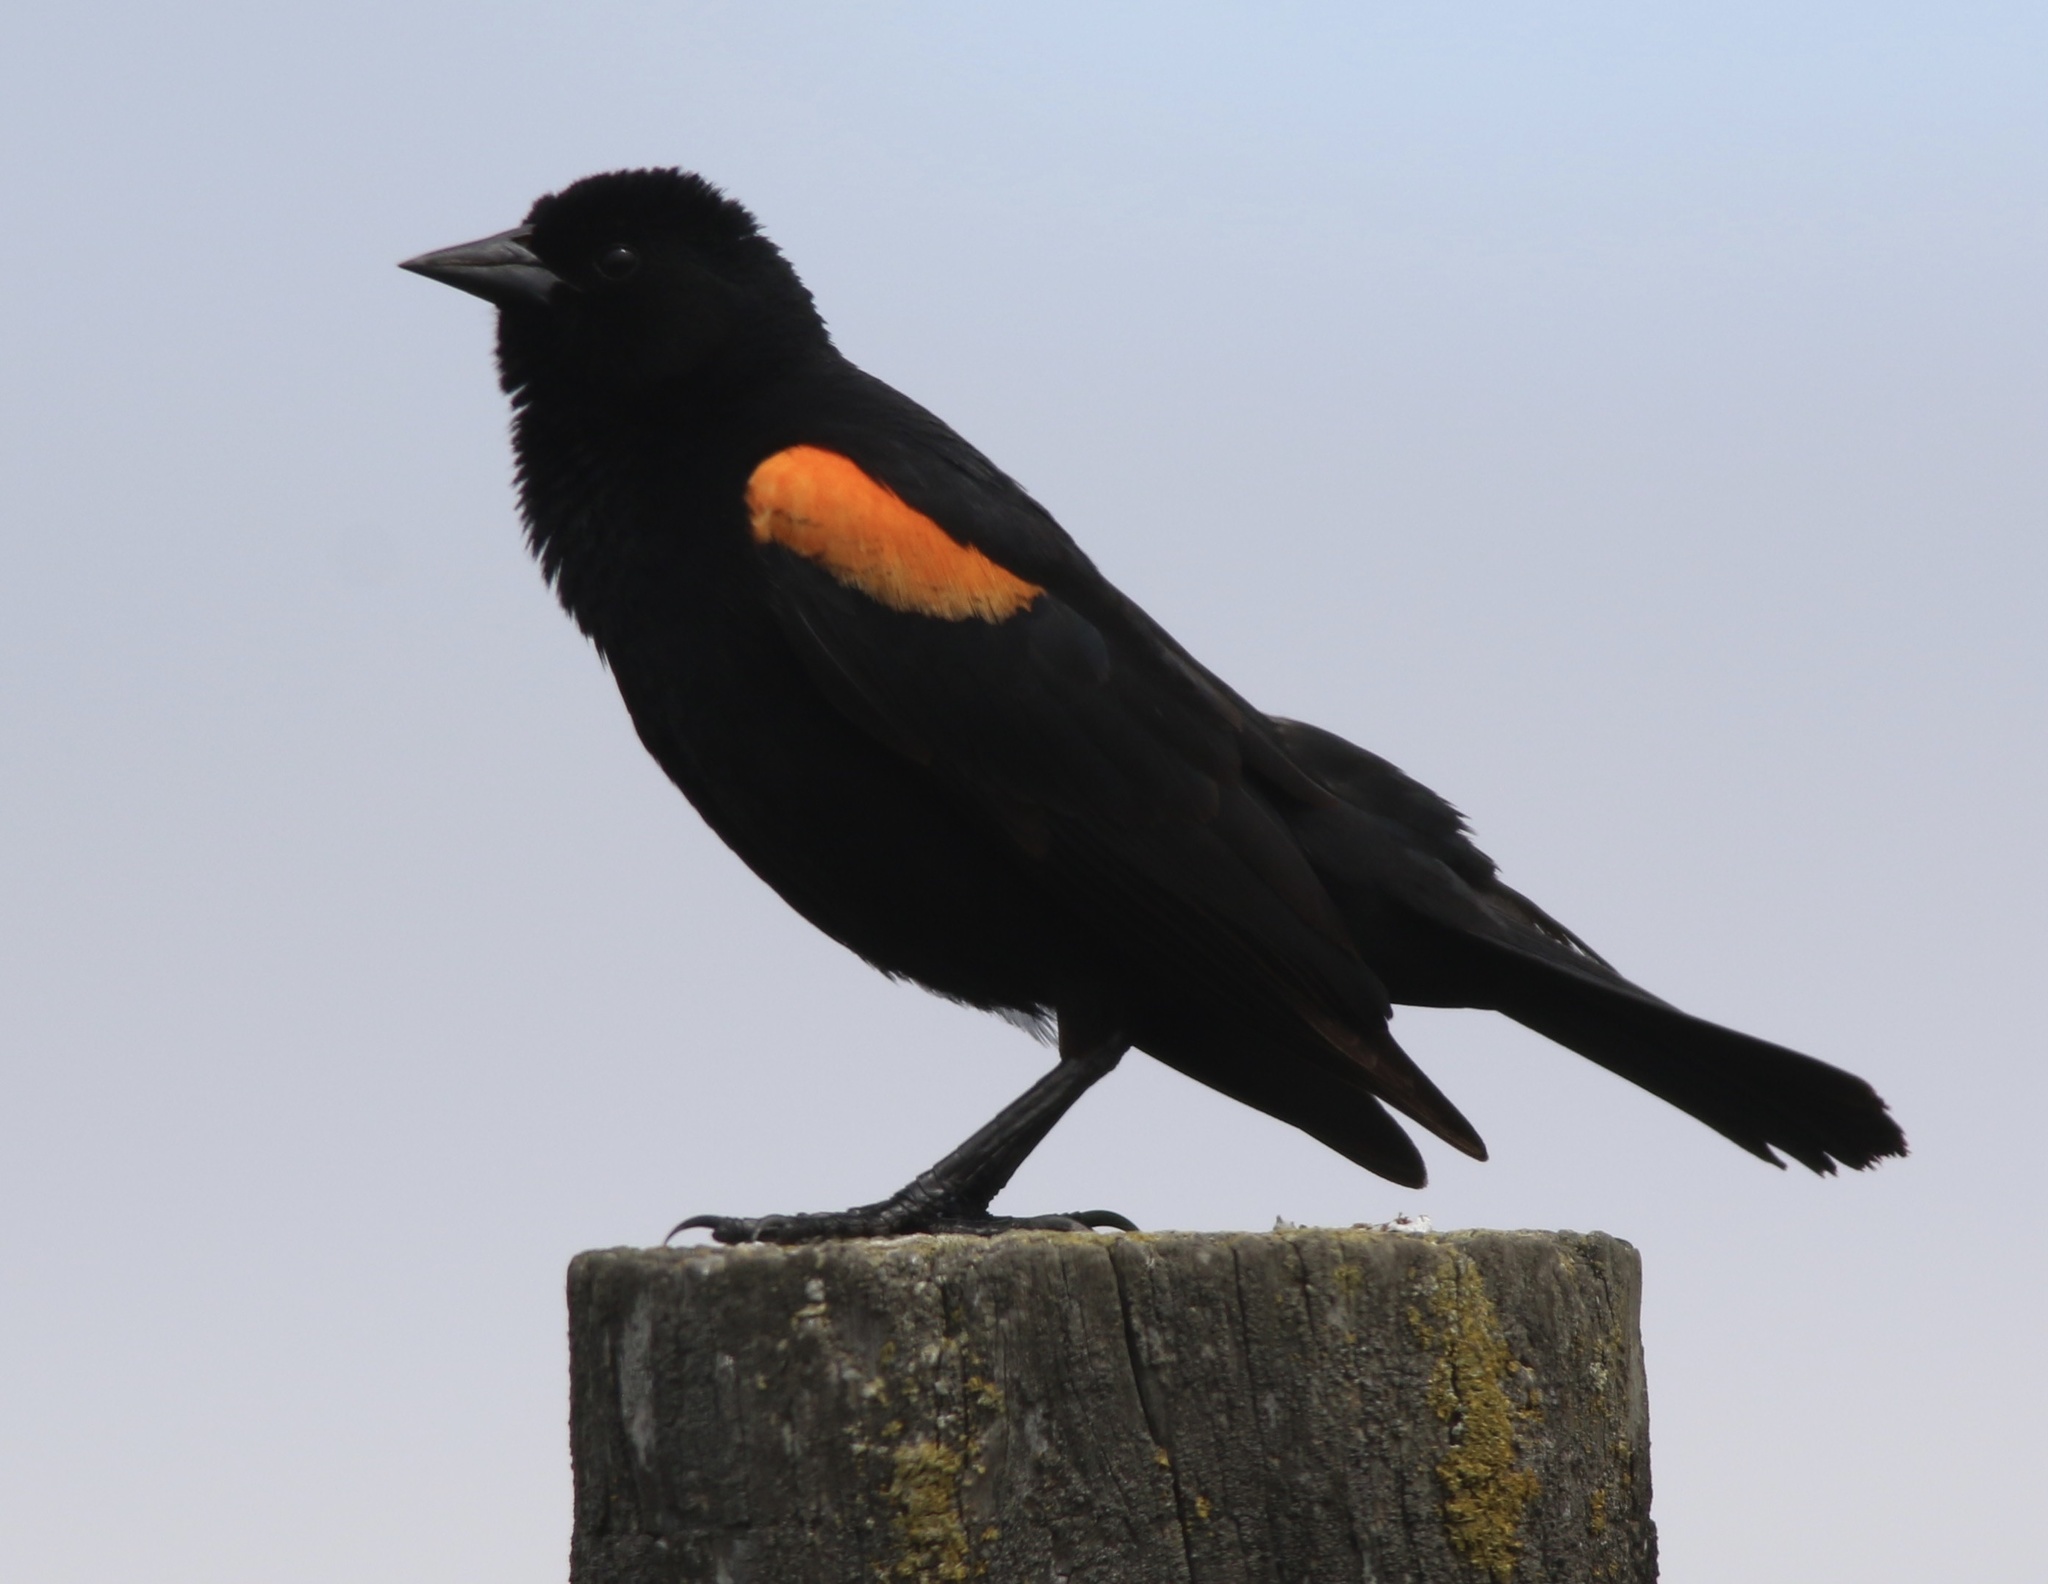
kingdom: Animalia
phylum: Chordata
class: Aves
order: Passeriformes
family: Icteridae
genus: Agelaius
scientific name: Agelaius phoeniceus
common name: Red-winged blackbird
